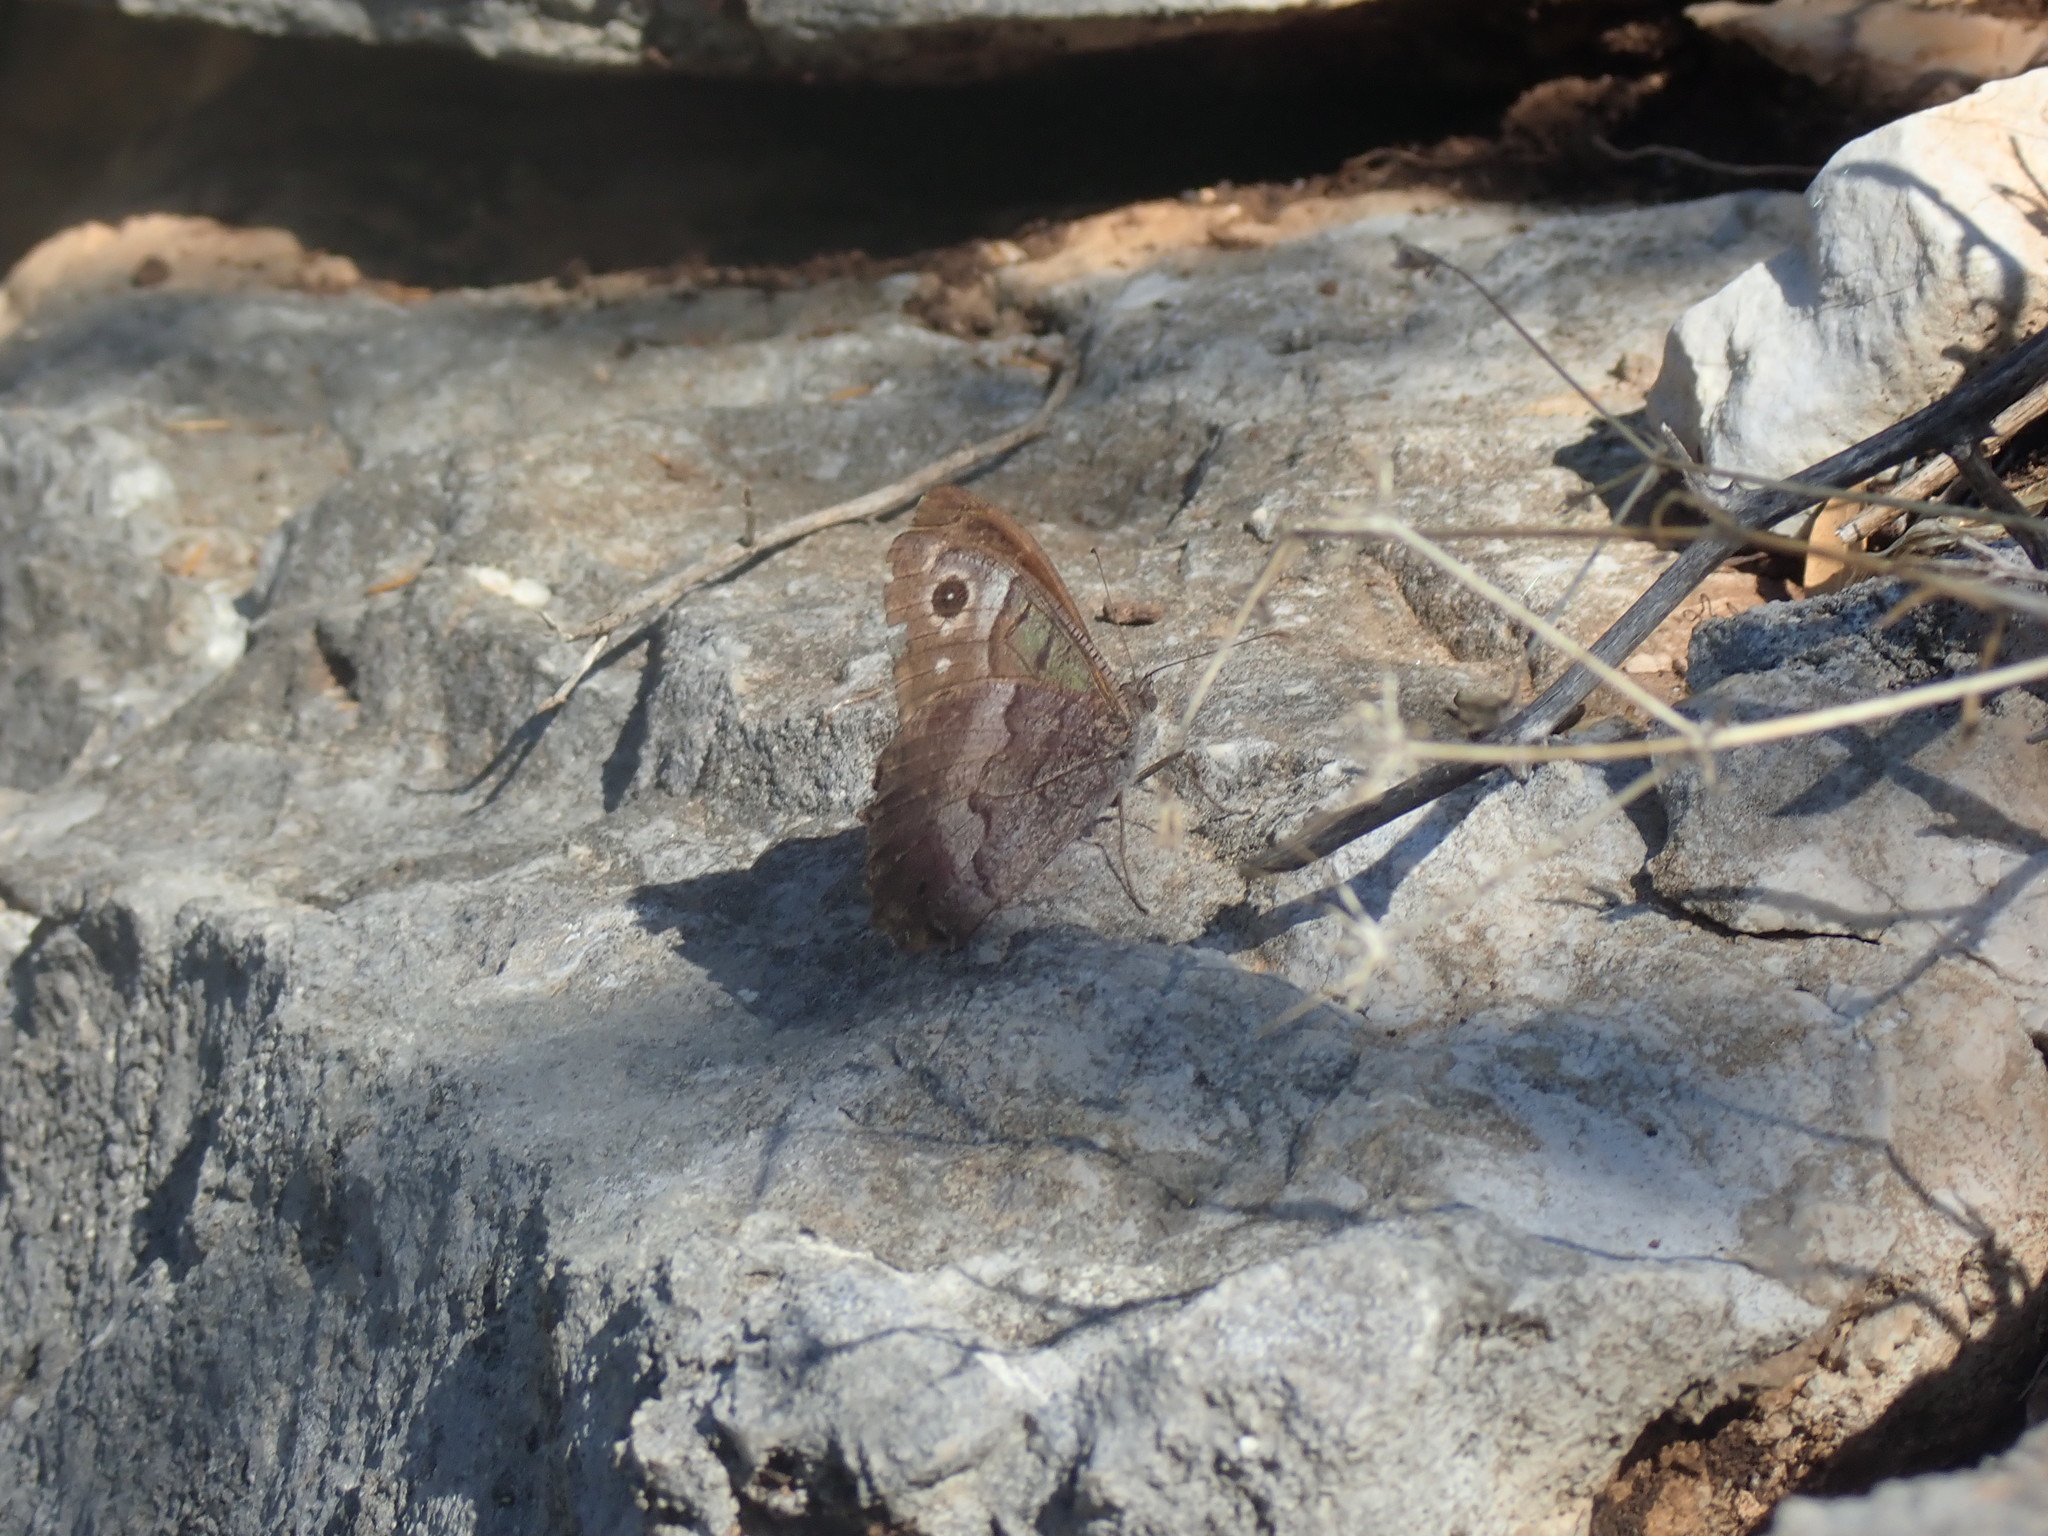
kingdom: Animalia
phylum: Arthropoda
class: Insecta
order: Lepidoptera
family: Nymphalidae
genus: Hipparchia
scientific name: Hipparchia statilinus
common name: Tree grayling
